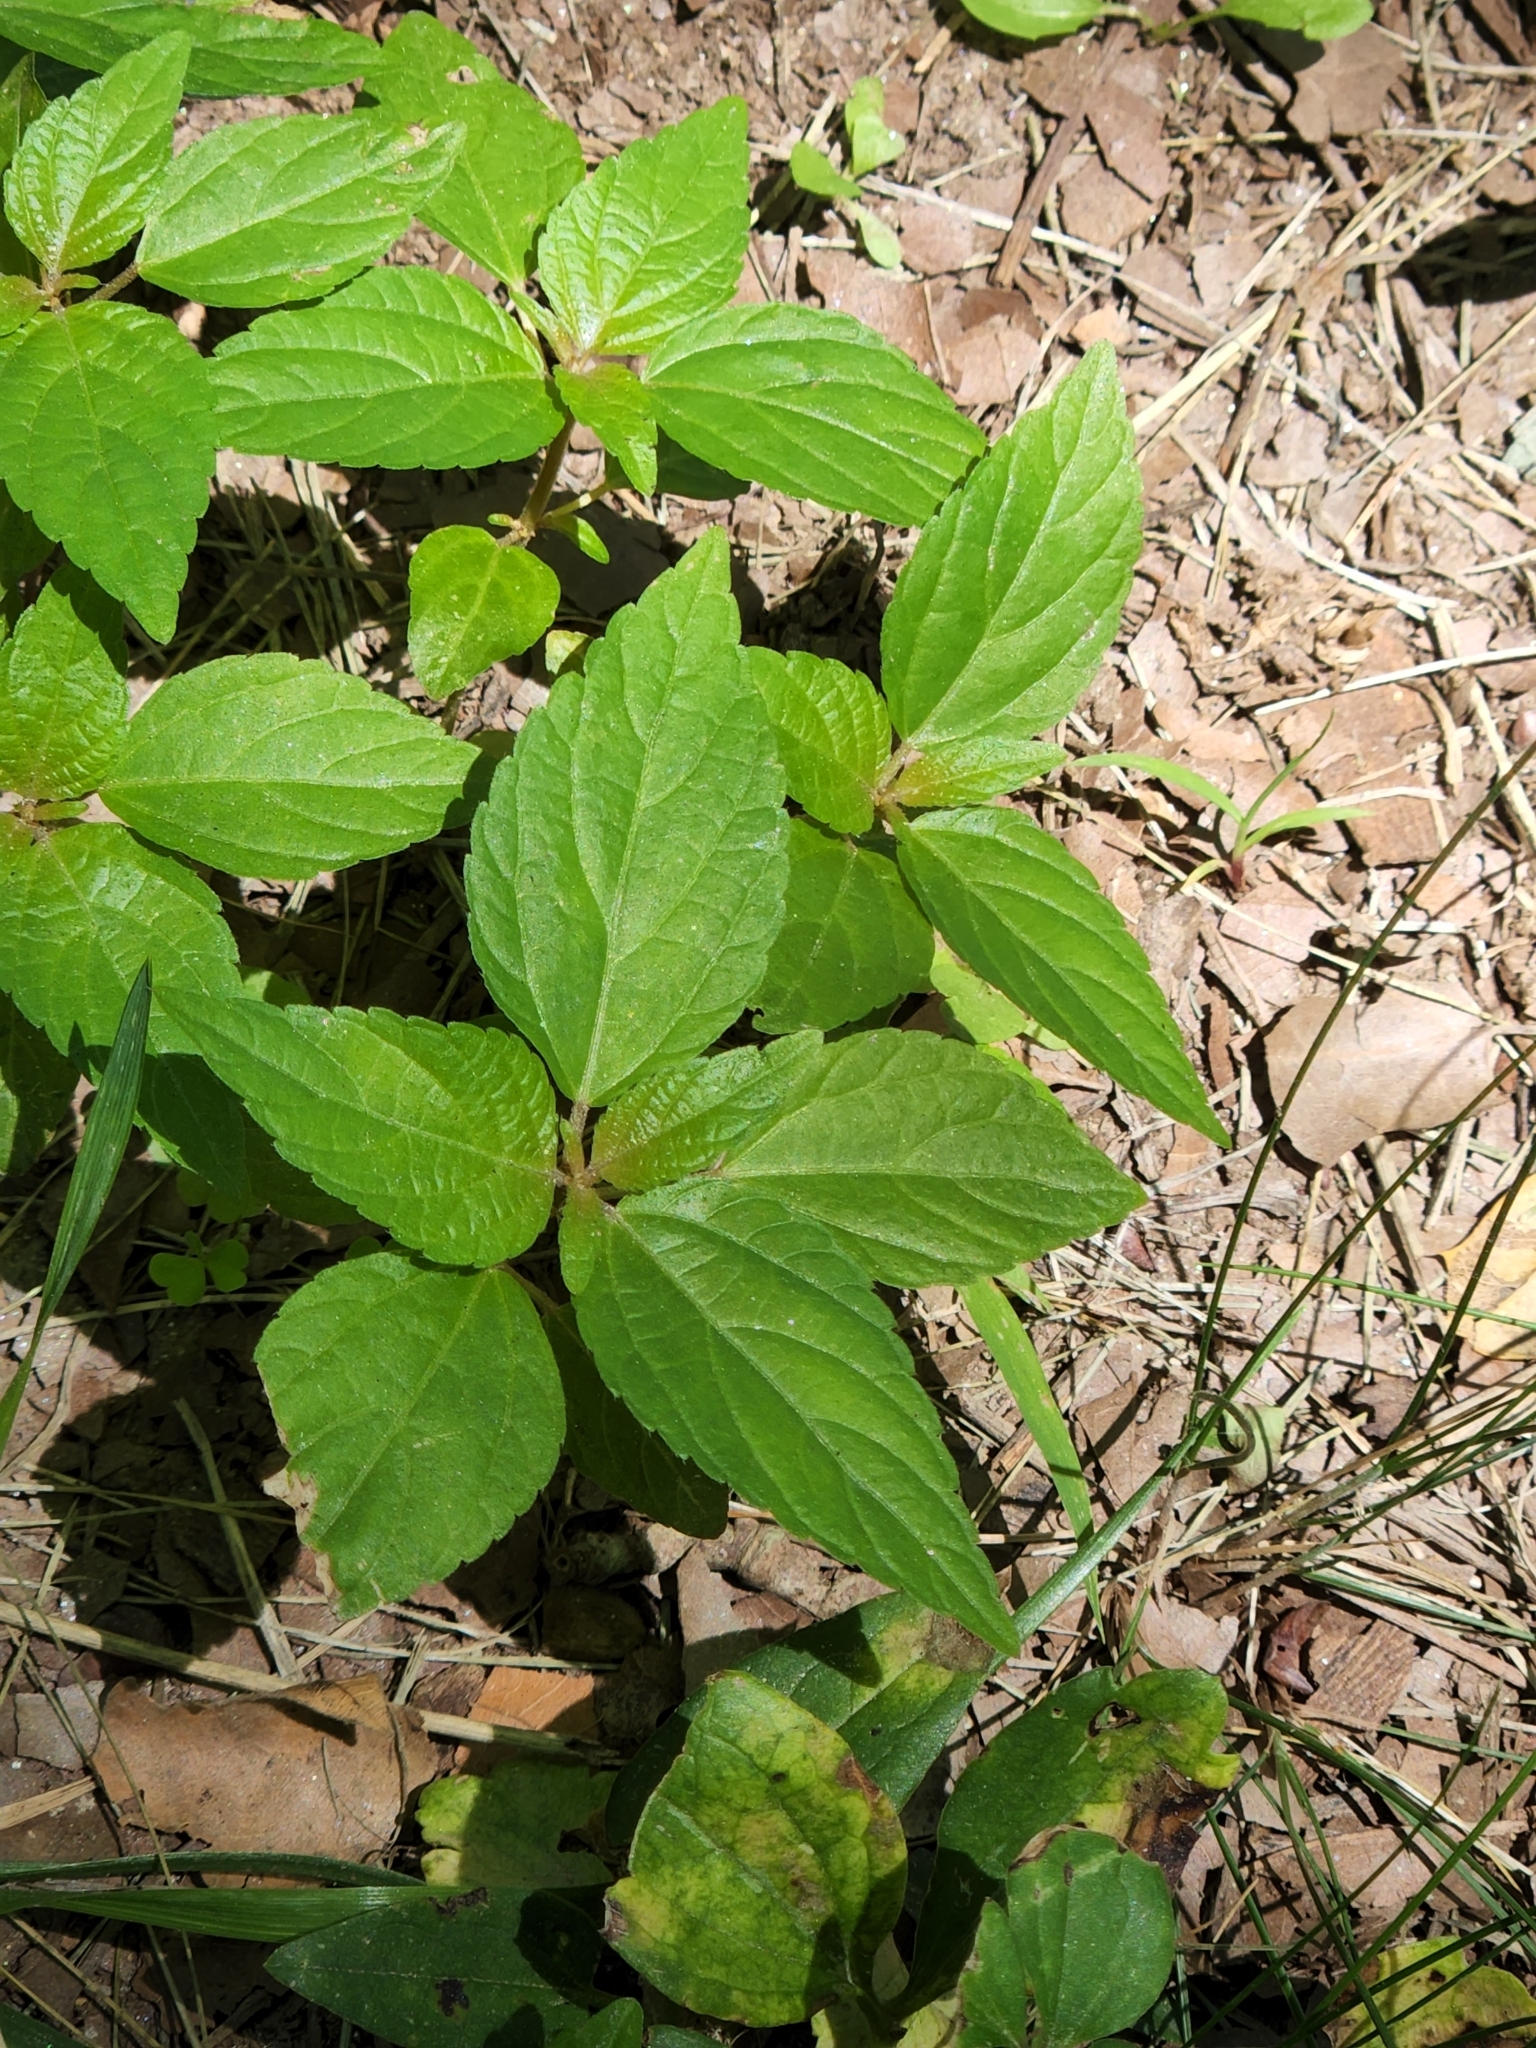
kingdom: Plantae
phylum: Tracheophyta
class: Magnoliopsida
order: Malpighiales
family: Euphorbiaceae
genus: Acalypha
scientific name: Acalypha rhomboidea
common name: Rhombic copperleaf
